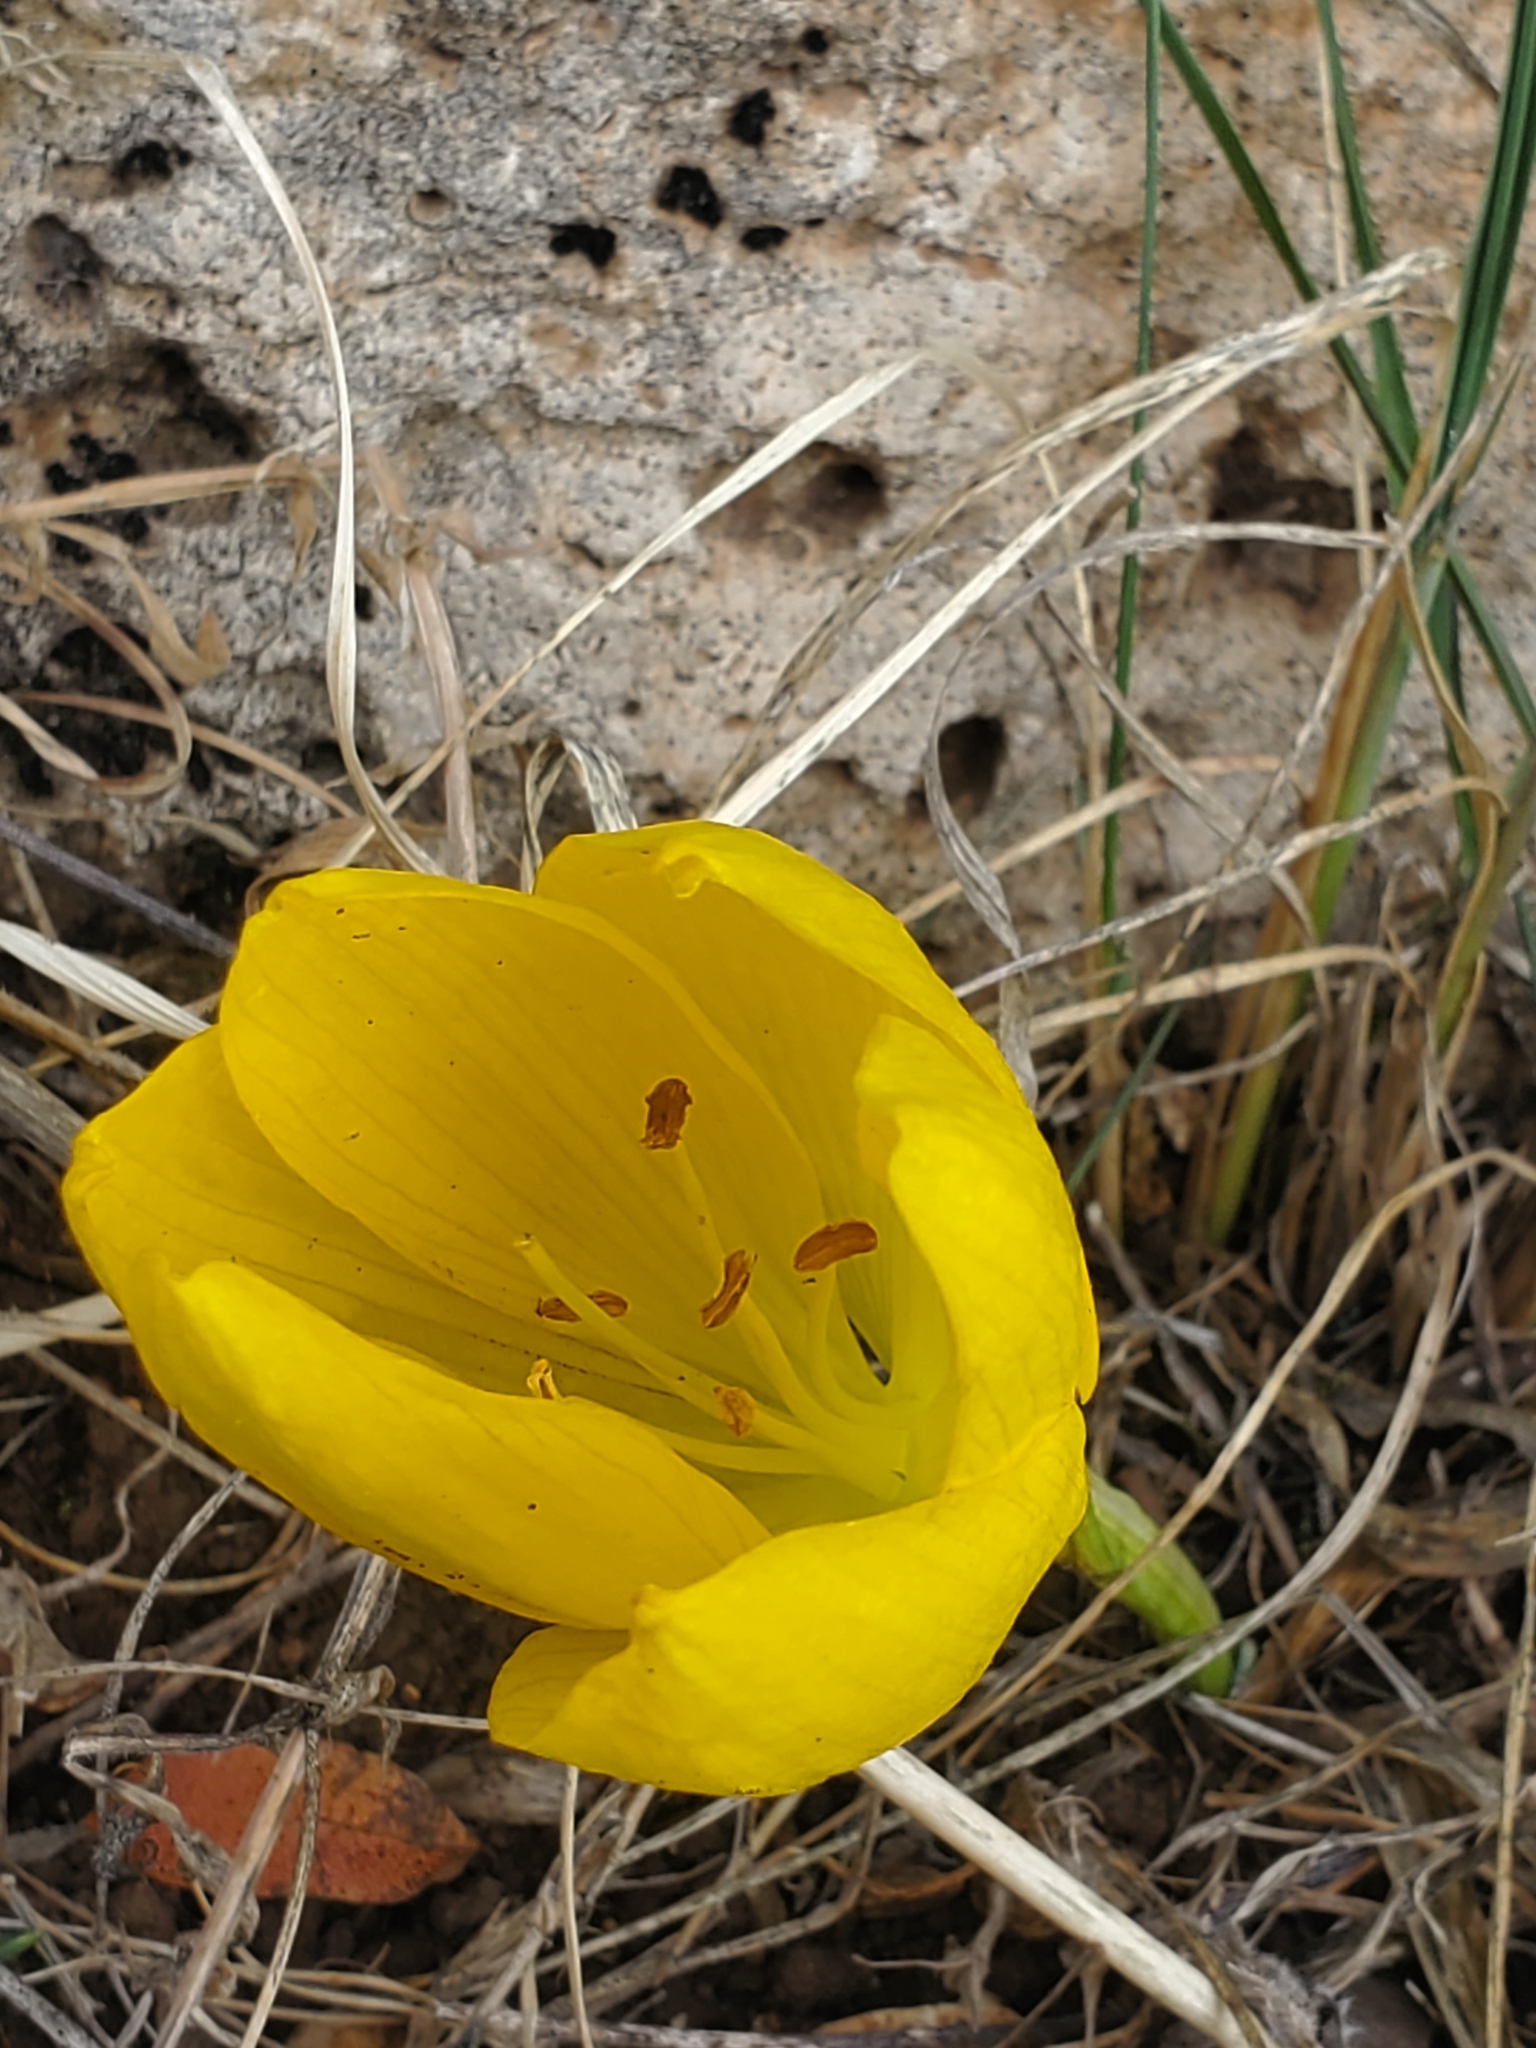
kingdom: Plantae
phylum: Tracheophyta
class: Liliopsida
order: Asparagales
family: Amaryllidaceae
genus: Sternbergia
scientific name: Sternbergia clusiana
